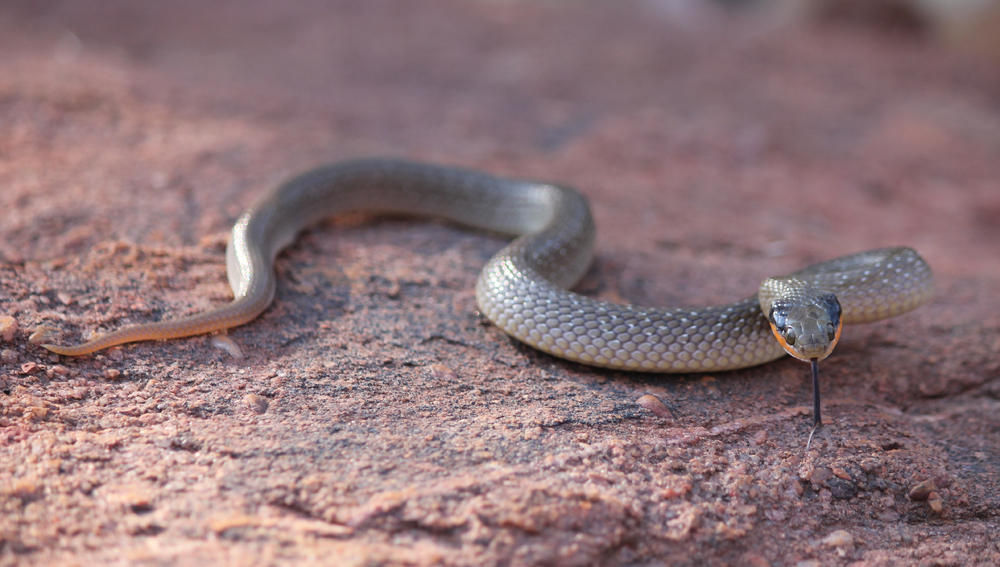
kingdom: Animalia
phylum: Chordata
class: Squamata
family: Colubridae
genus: Crotaphopeltis
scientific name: Crotaphopeltis hotamboeia
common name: Red-lipped snake
